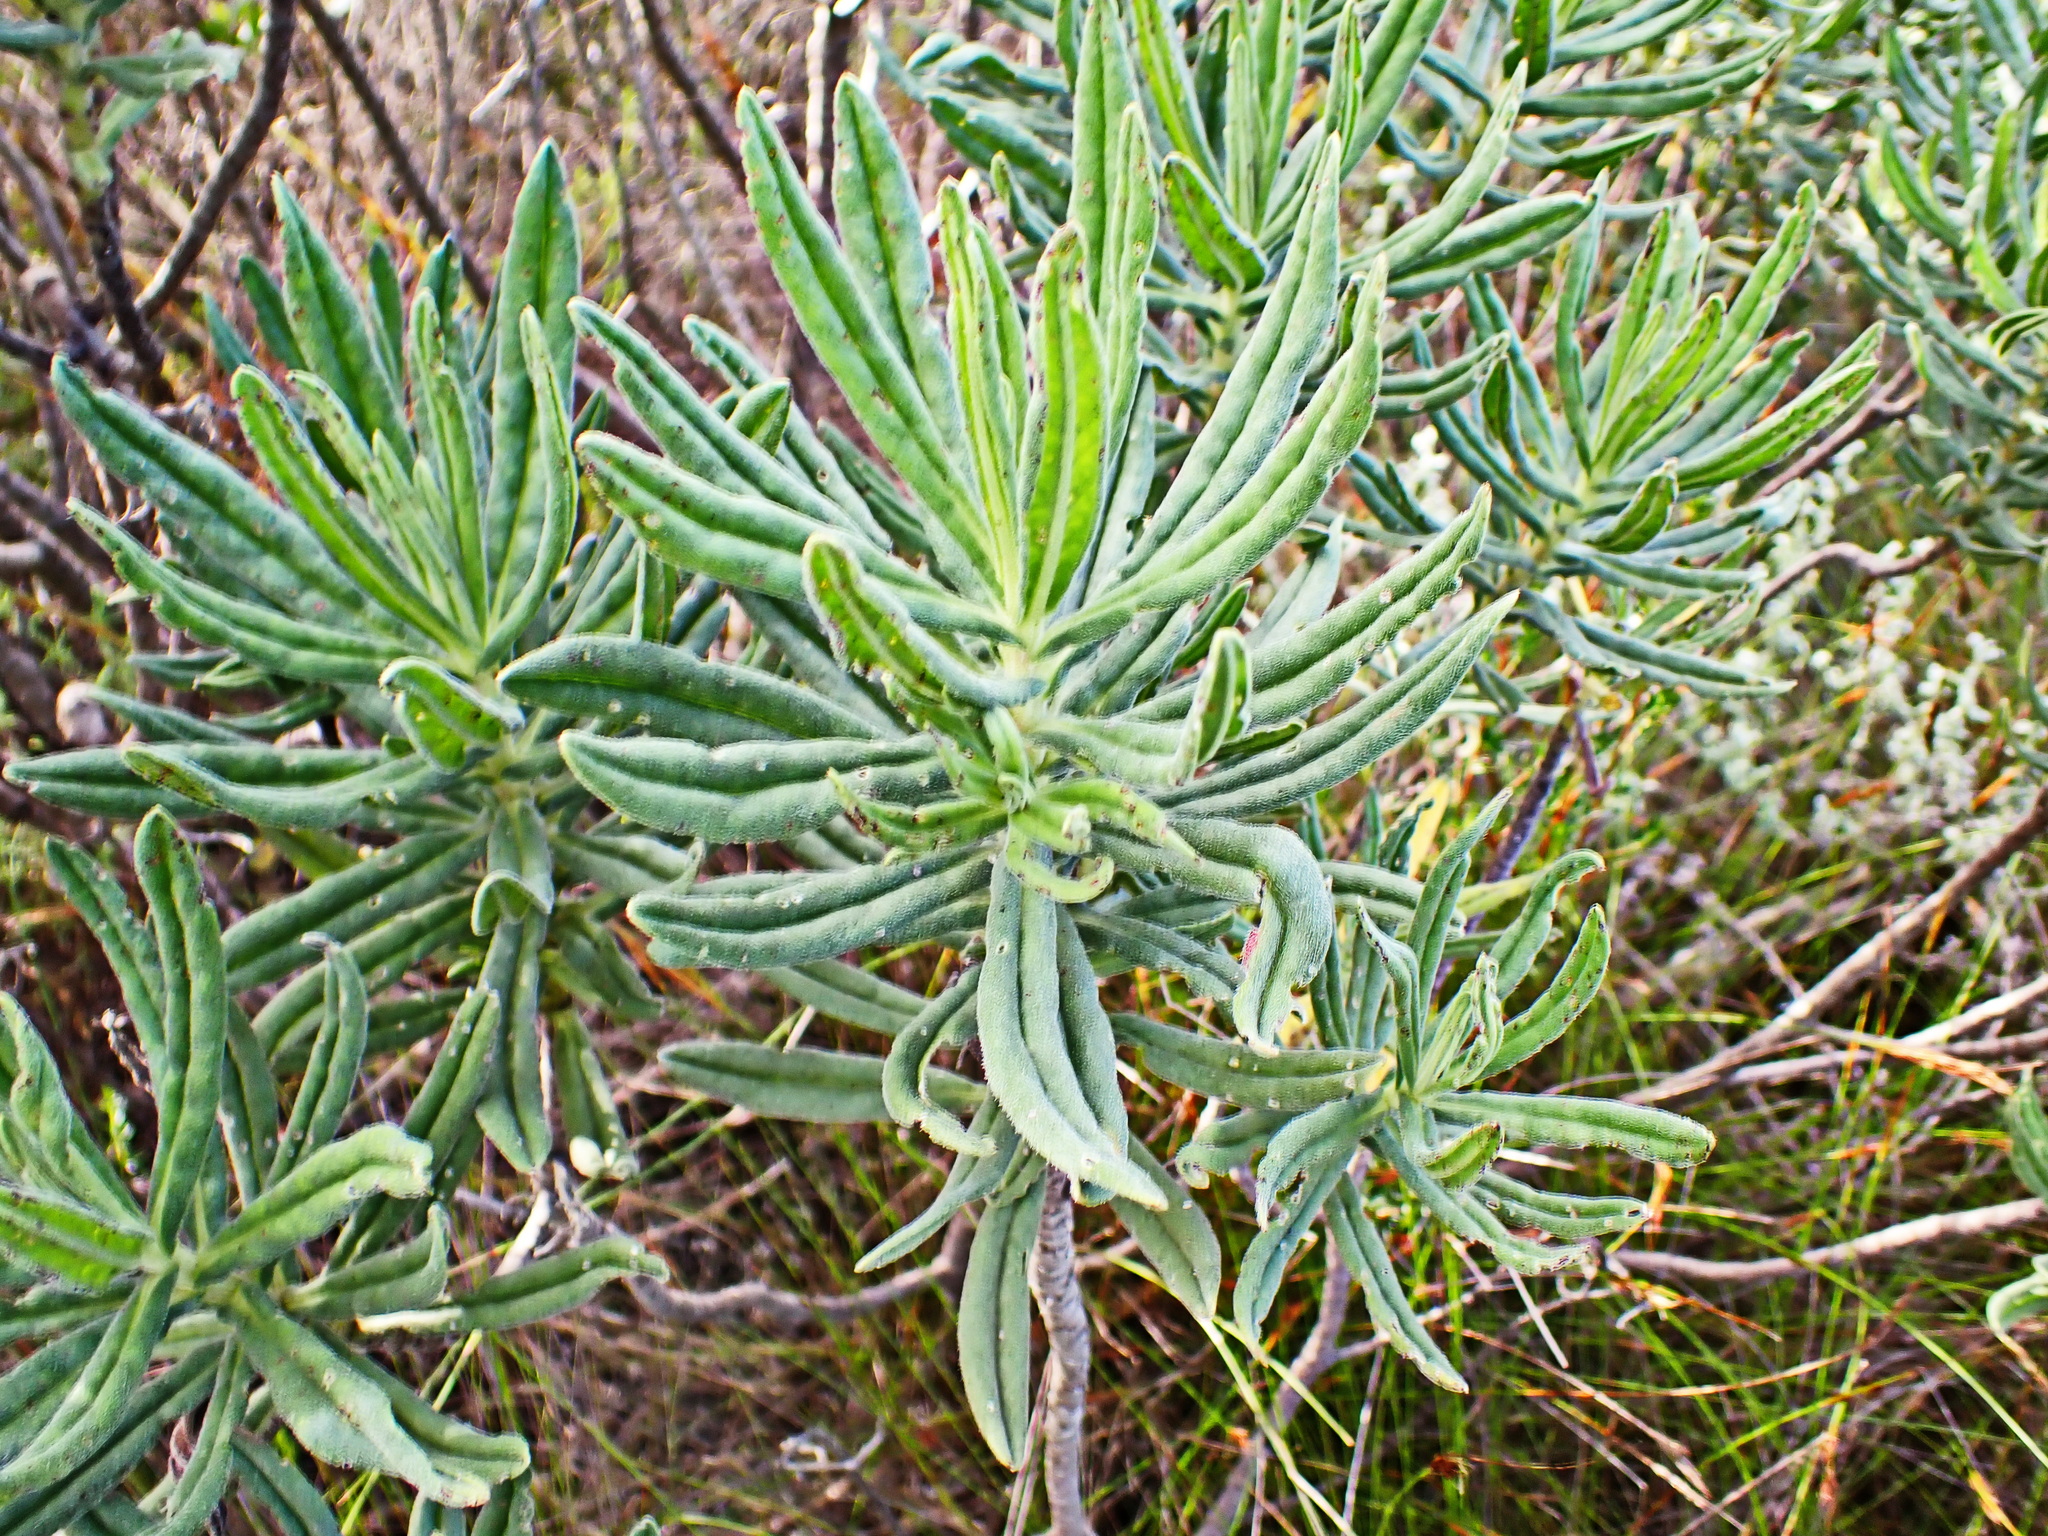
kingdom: Plantae
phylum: Tracheophyta
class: Magnoliopsida
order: Boraginales
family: Boraginaceae
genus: Lobostemon
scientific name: Lobostemon belliformis
